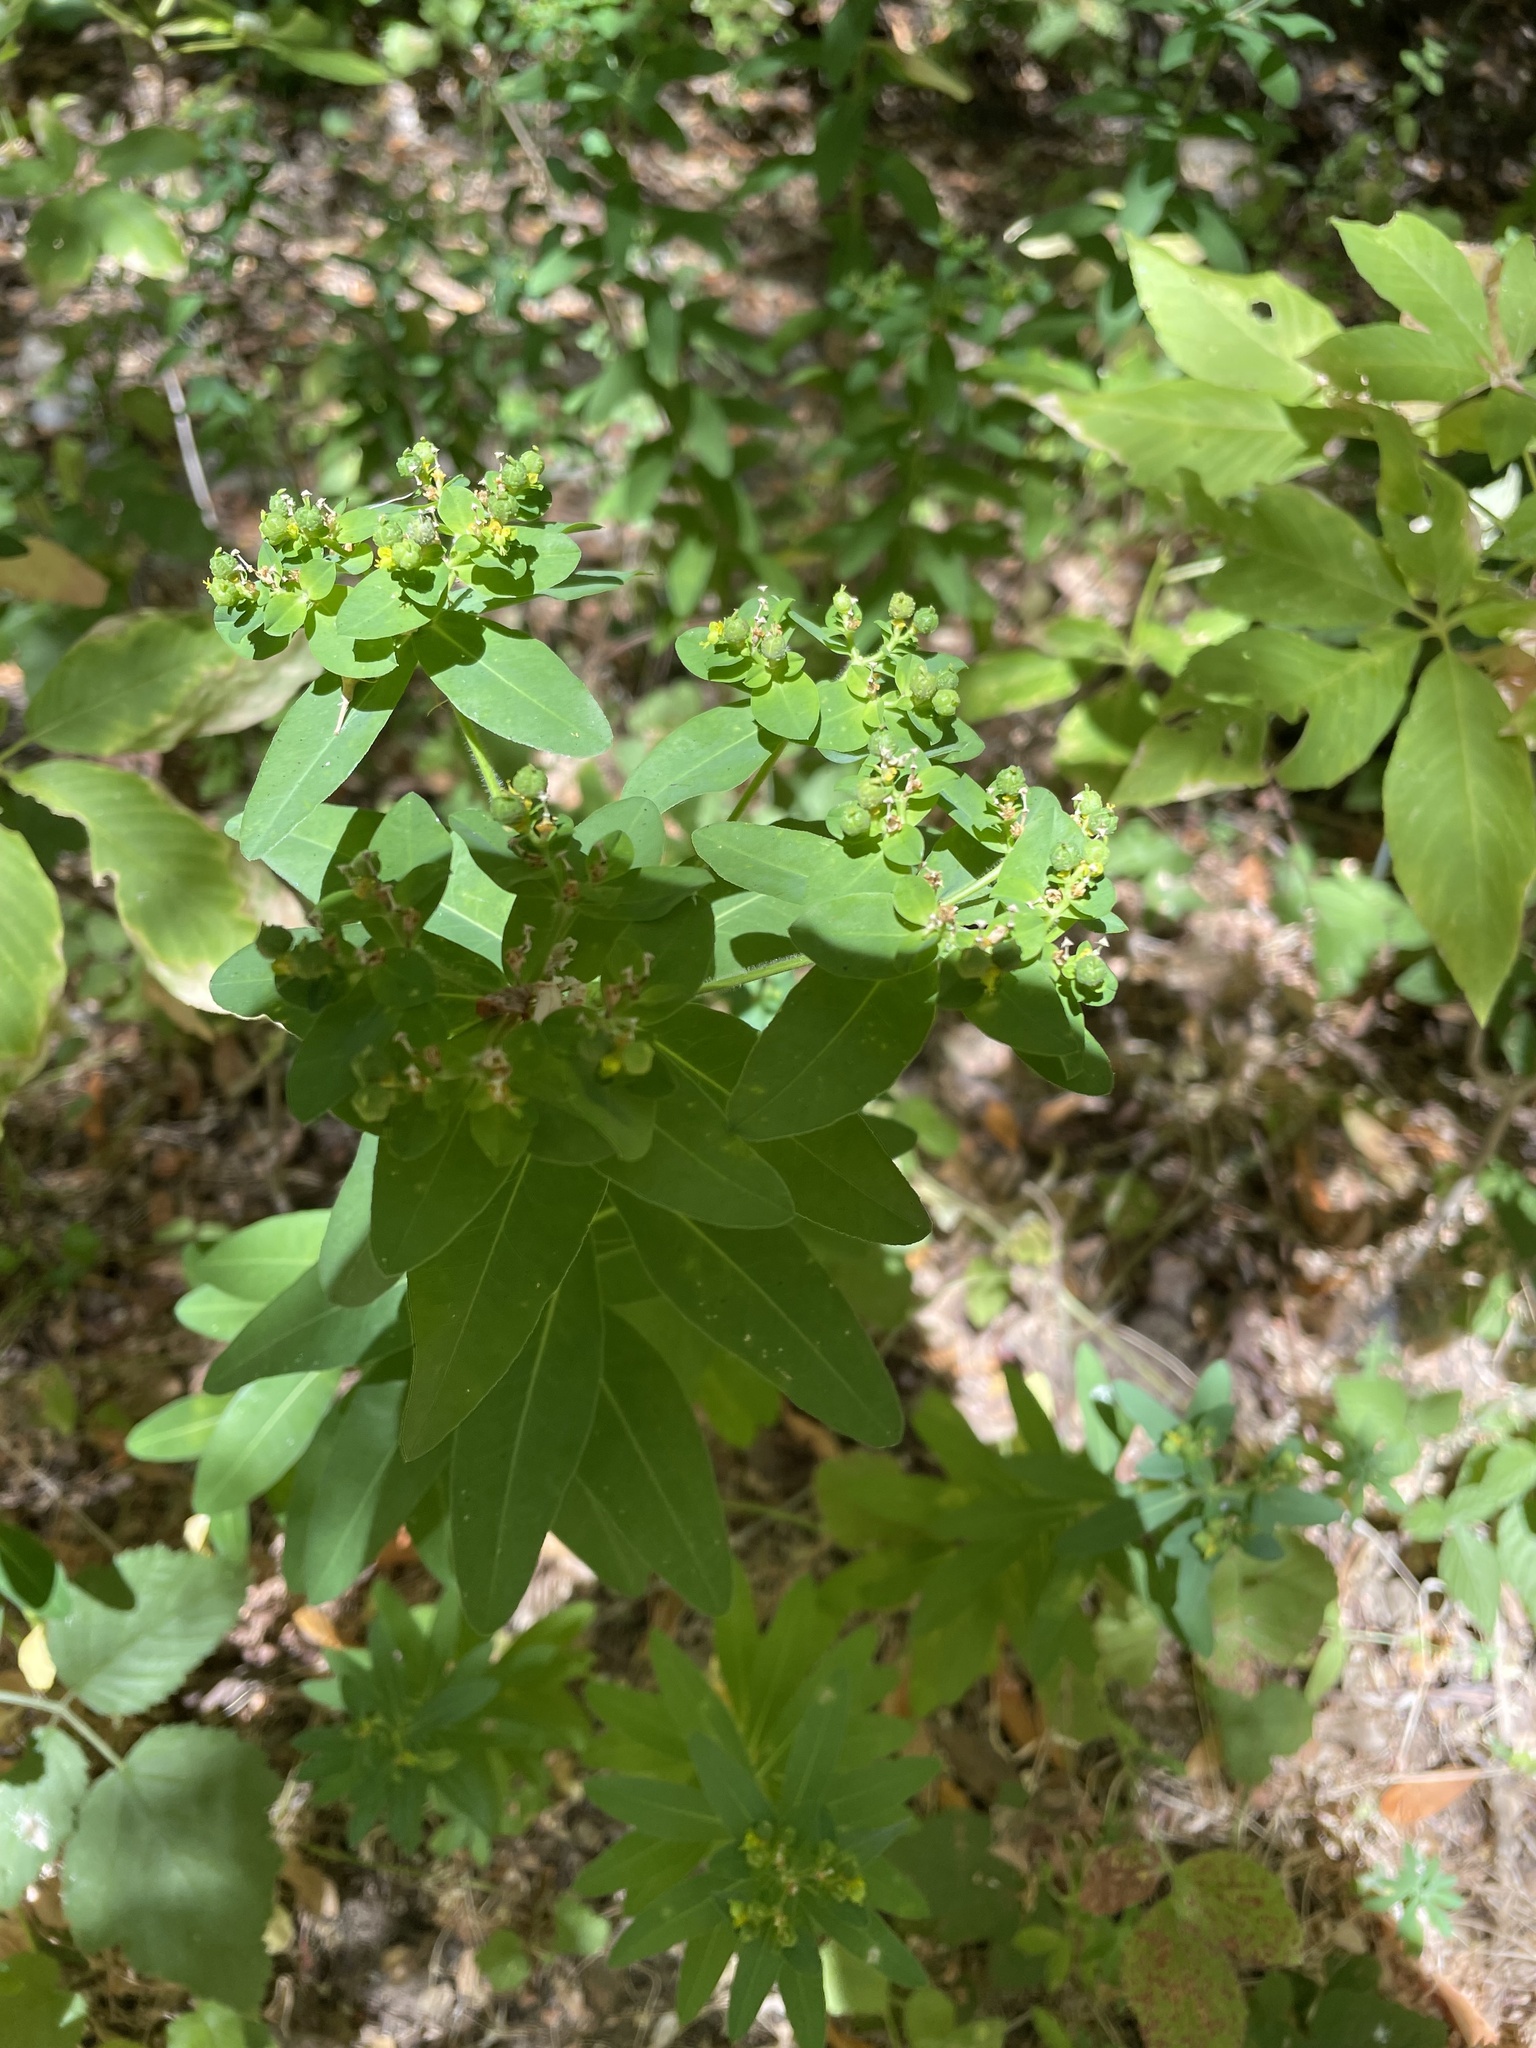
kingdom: Plantae
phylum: Tracheophyta
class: Magnoliopsida
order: Malpighiales
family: Euphorbiaceae
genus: Euphorbia
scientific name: Euphorbia oblongata
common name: Balkan spurge
